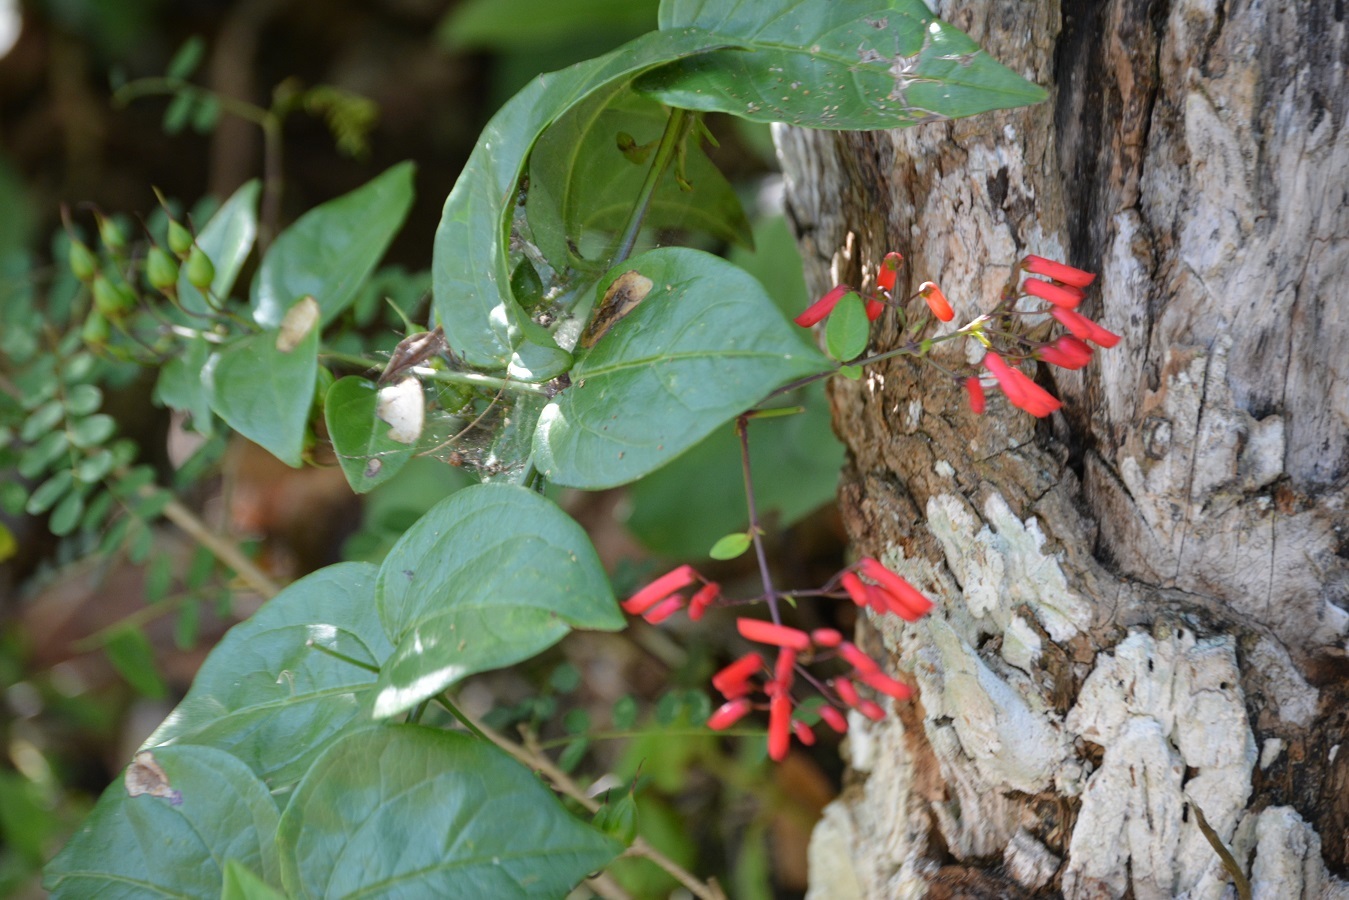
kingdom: Plantae
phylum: Tracheophyta
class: Magnoliopsida
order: Lamiales
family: Plantaginaceae
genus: Russelia
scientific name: Russelia contrerasii
